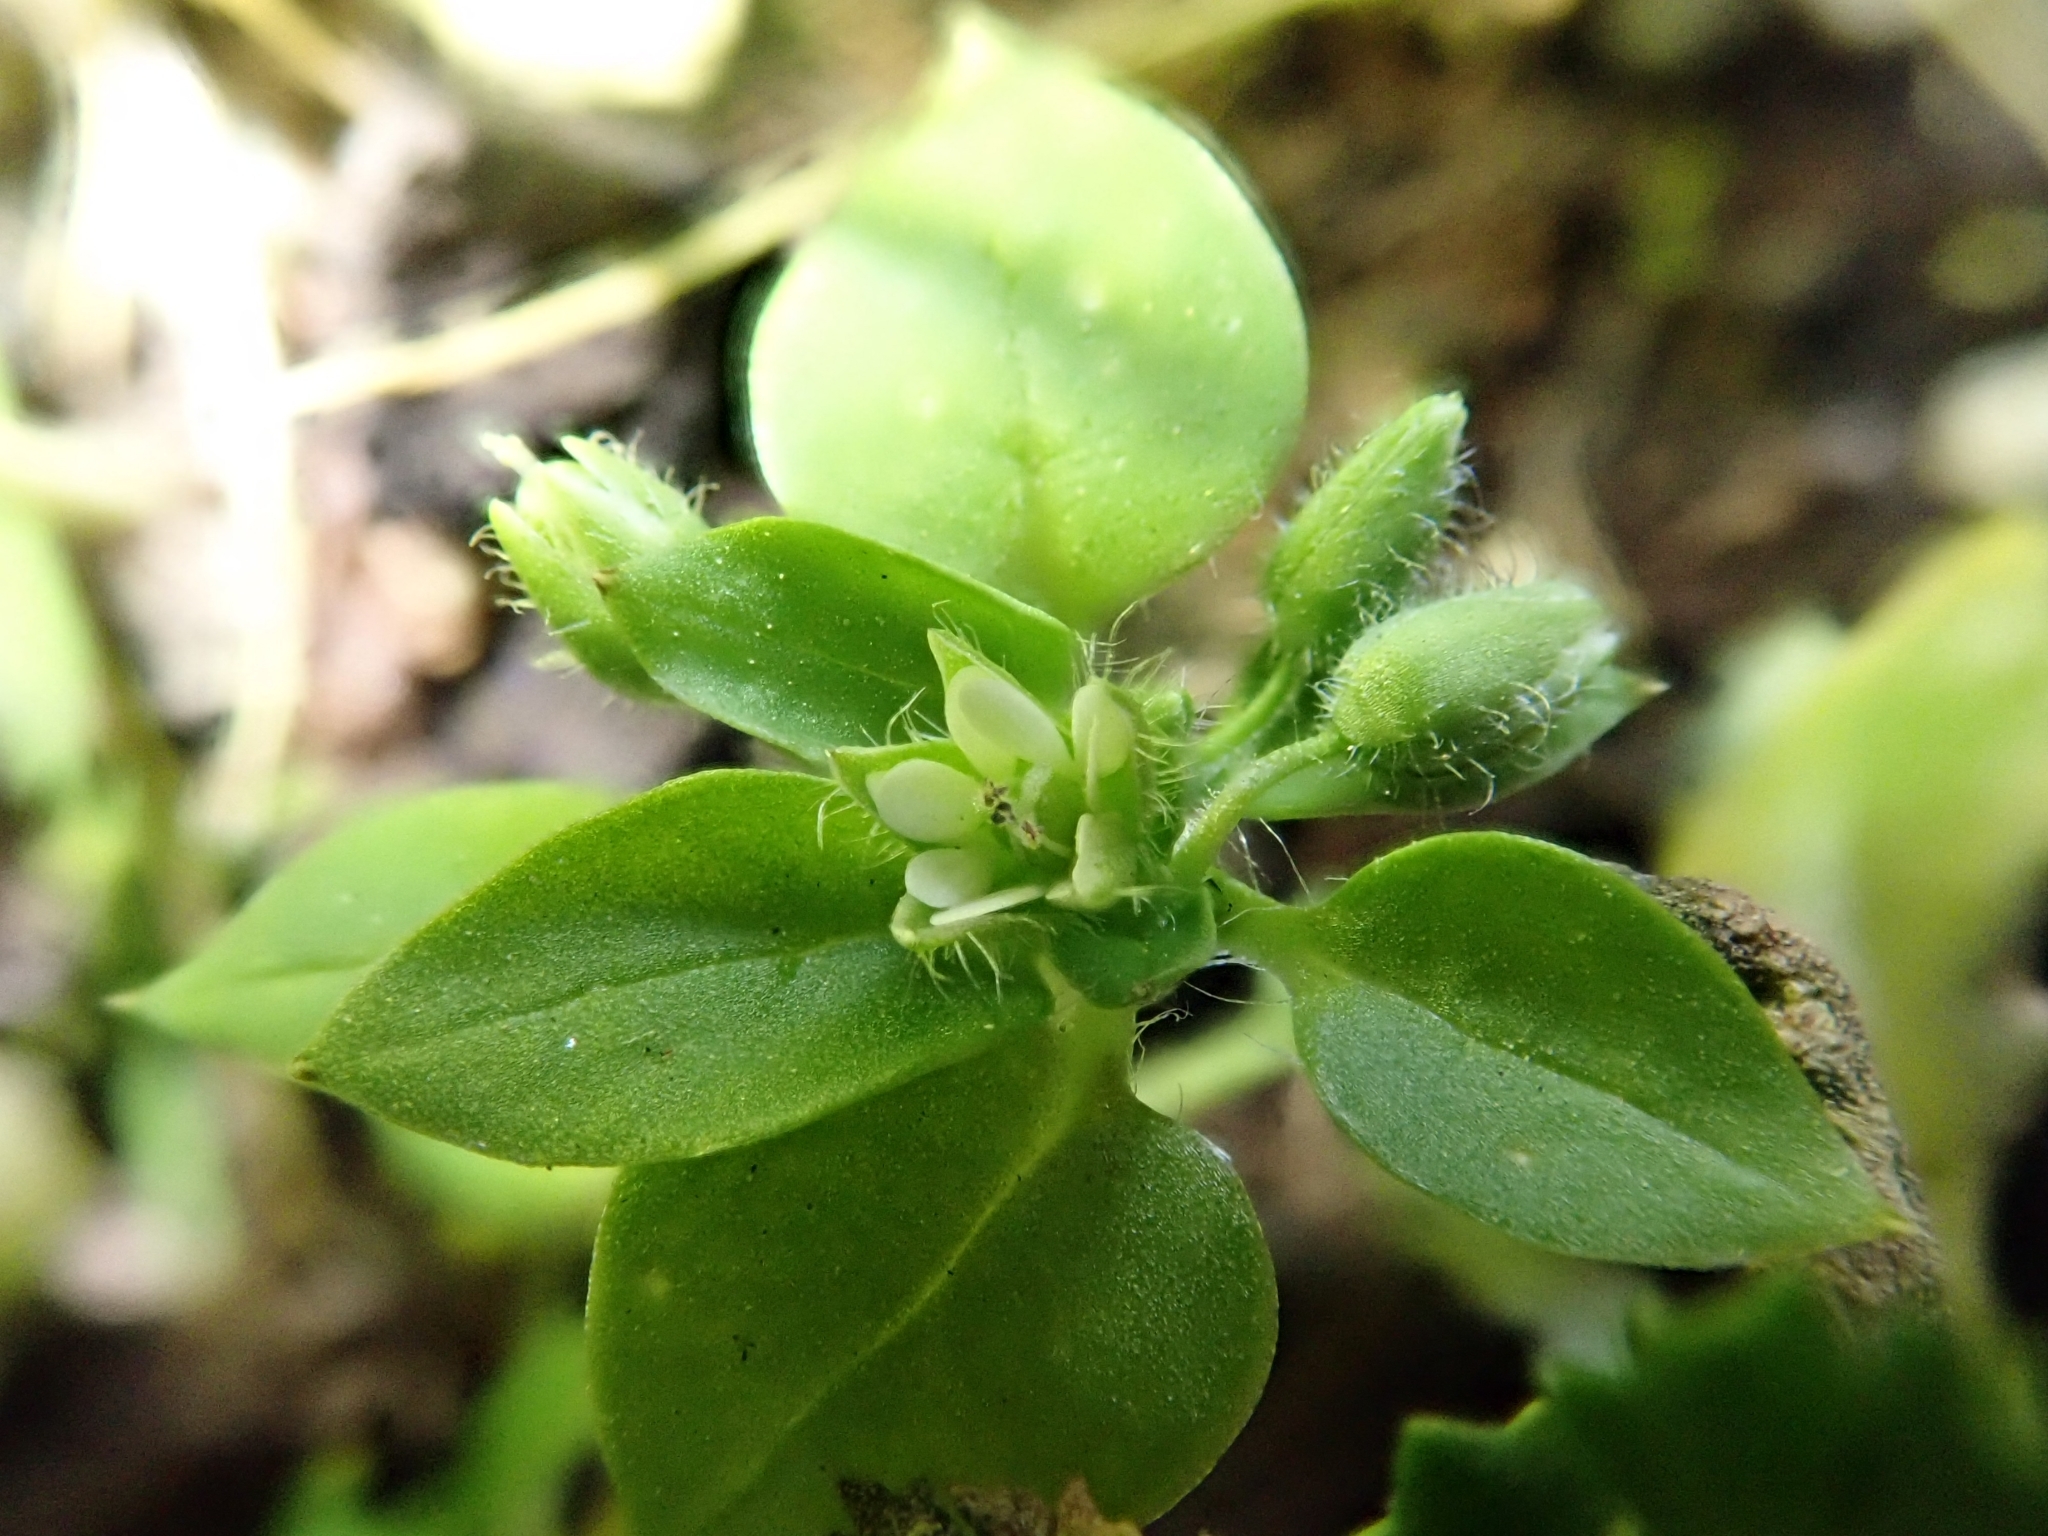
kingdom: Plantae
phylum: Tracheophyta
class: Magnoliopsida
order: Caryophyllales
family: Caryophyllaceae
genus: Stellaria
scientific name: Stellaria media
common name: Common chickweed
